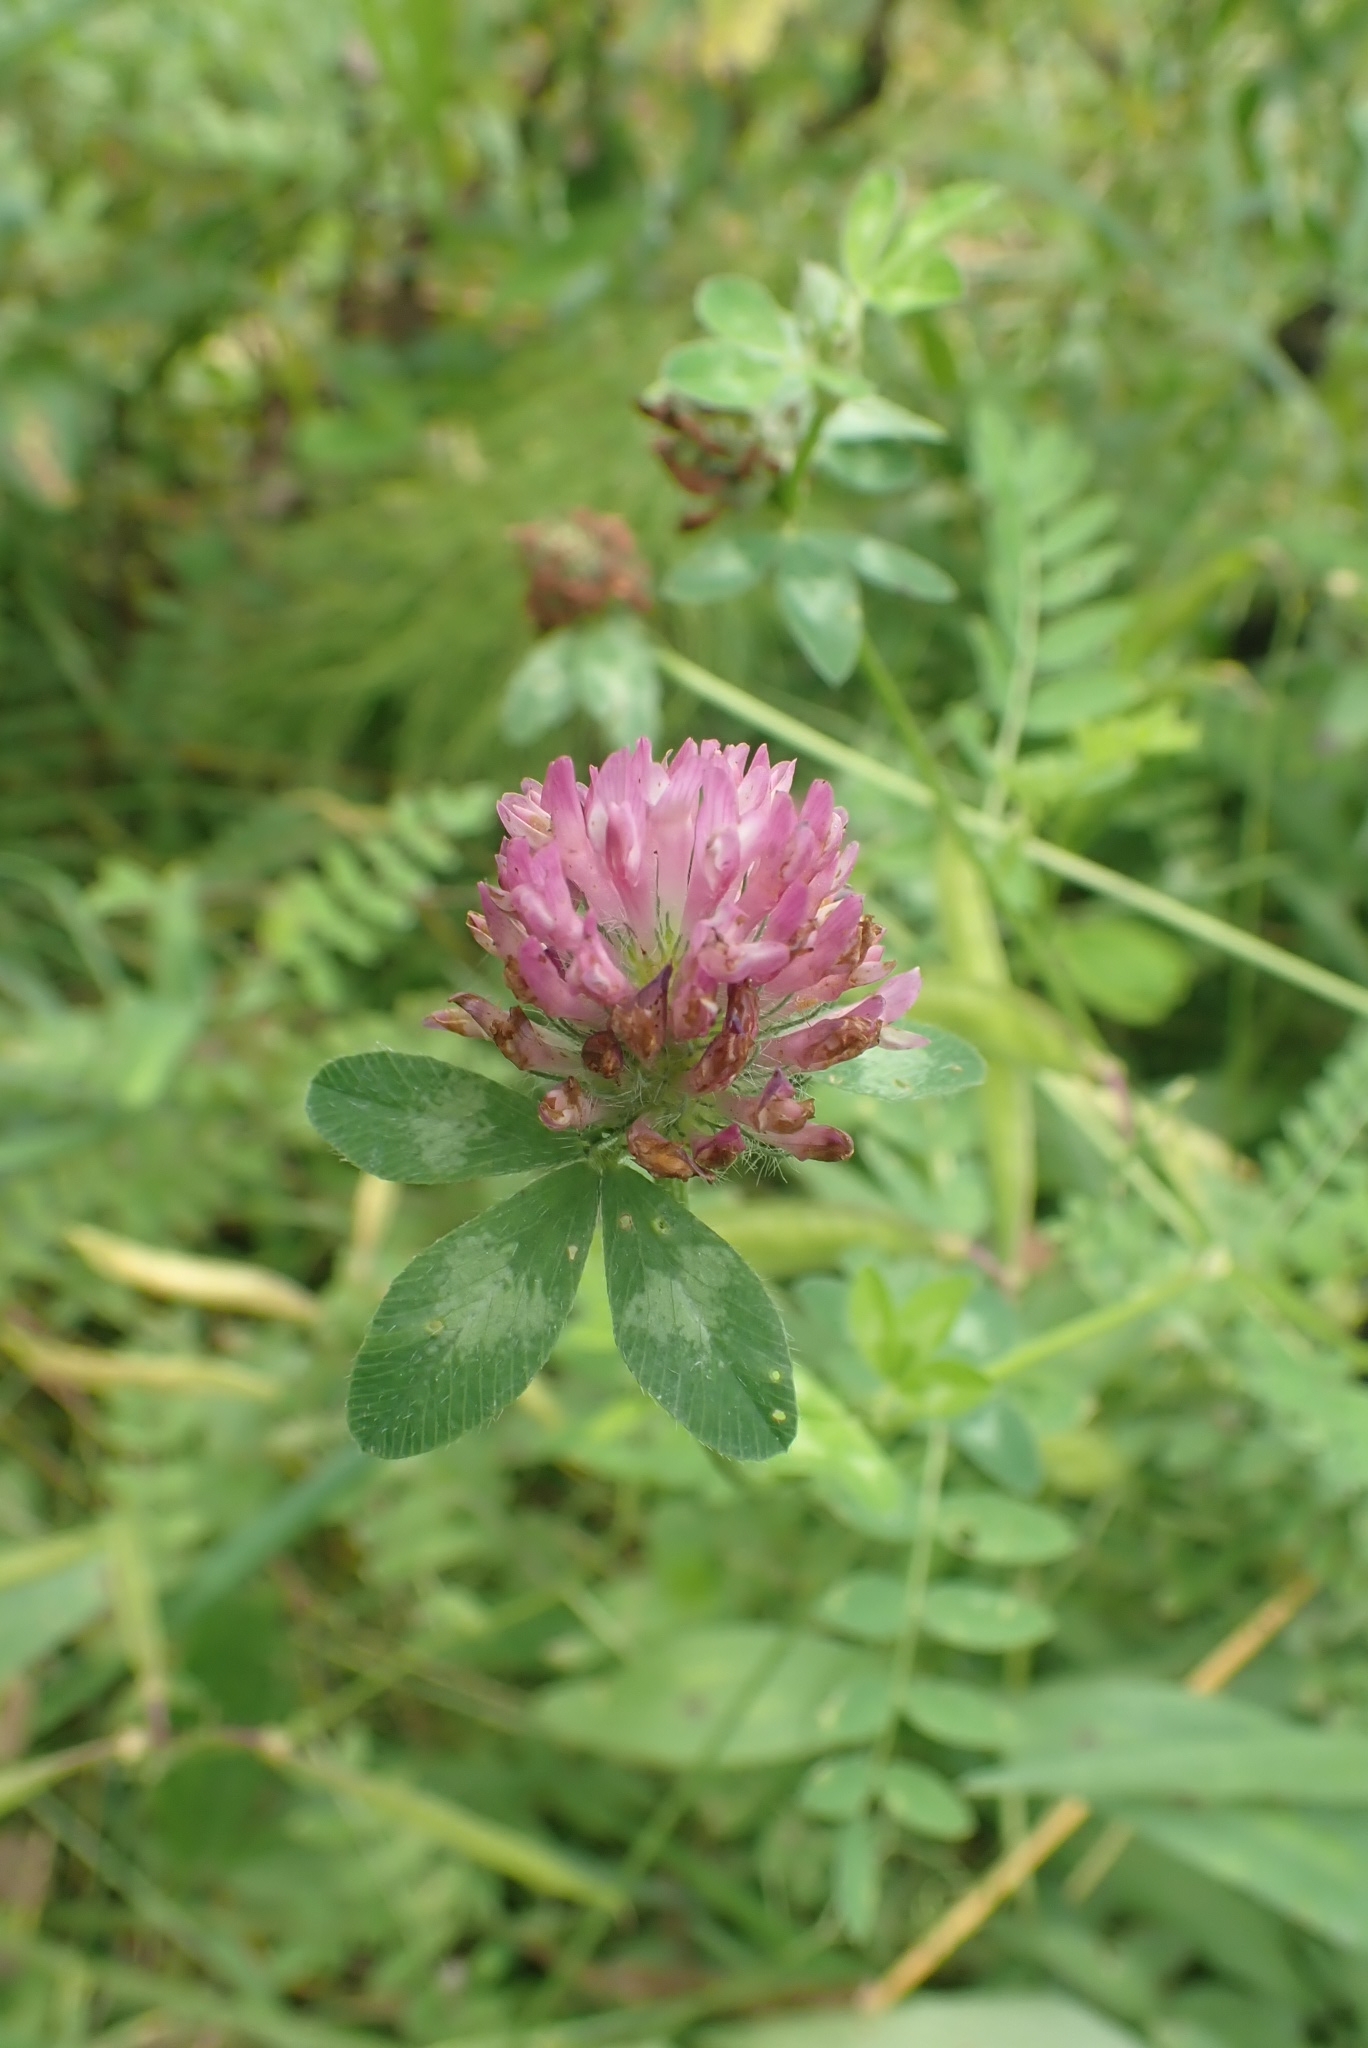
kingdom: Plantae
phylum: Tracheophyta
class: Magnoliopsida
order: Fabales
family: Fabaceae
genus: Trifolium
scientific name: Trifolium pratense
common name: Red clover
